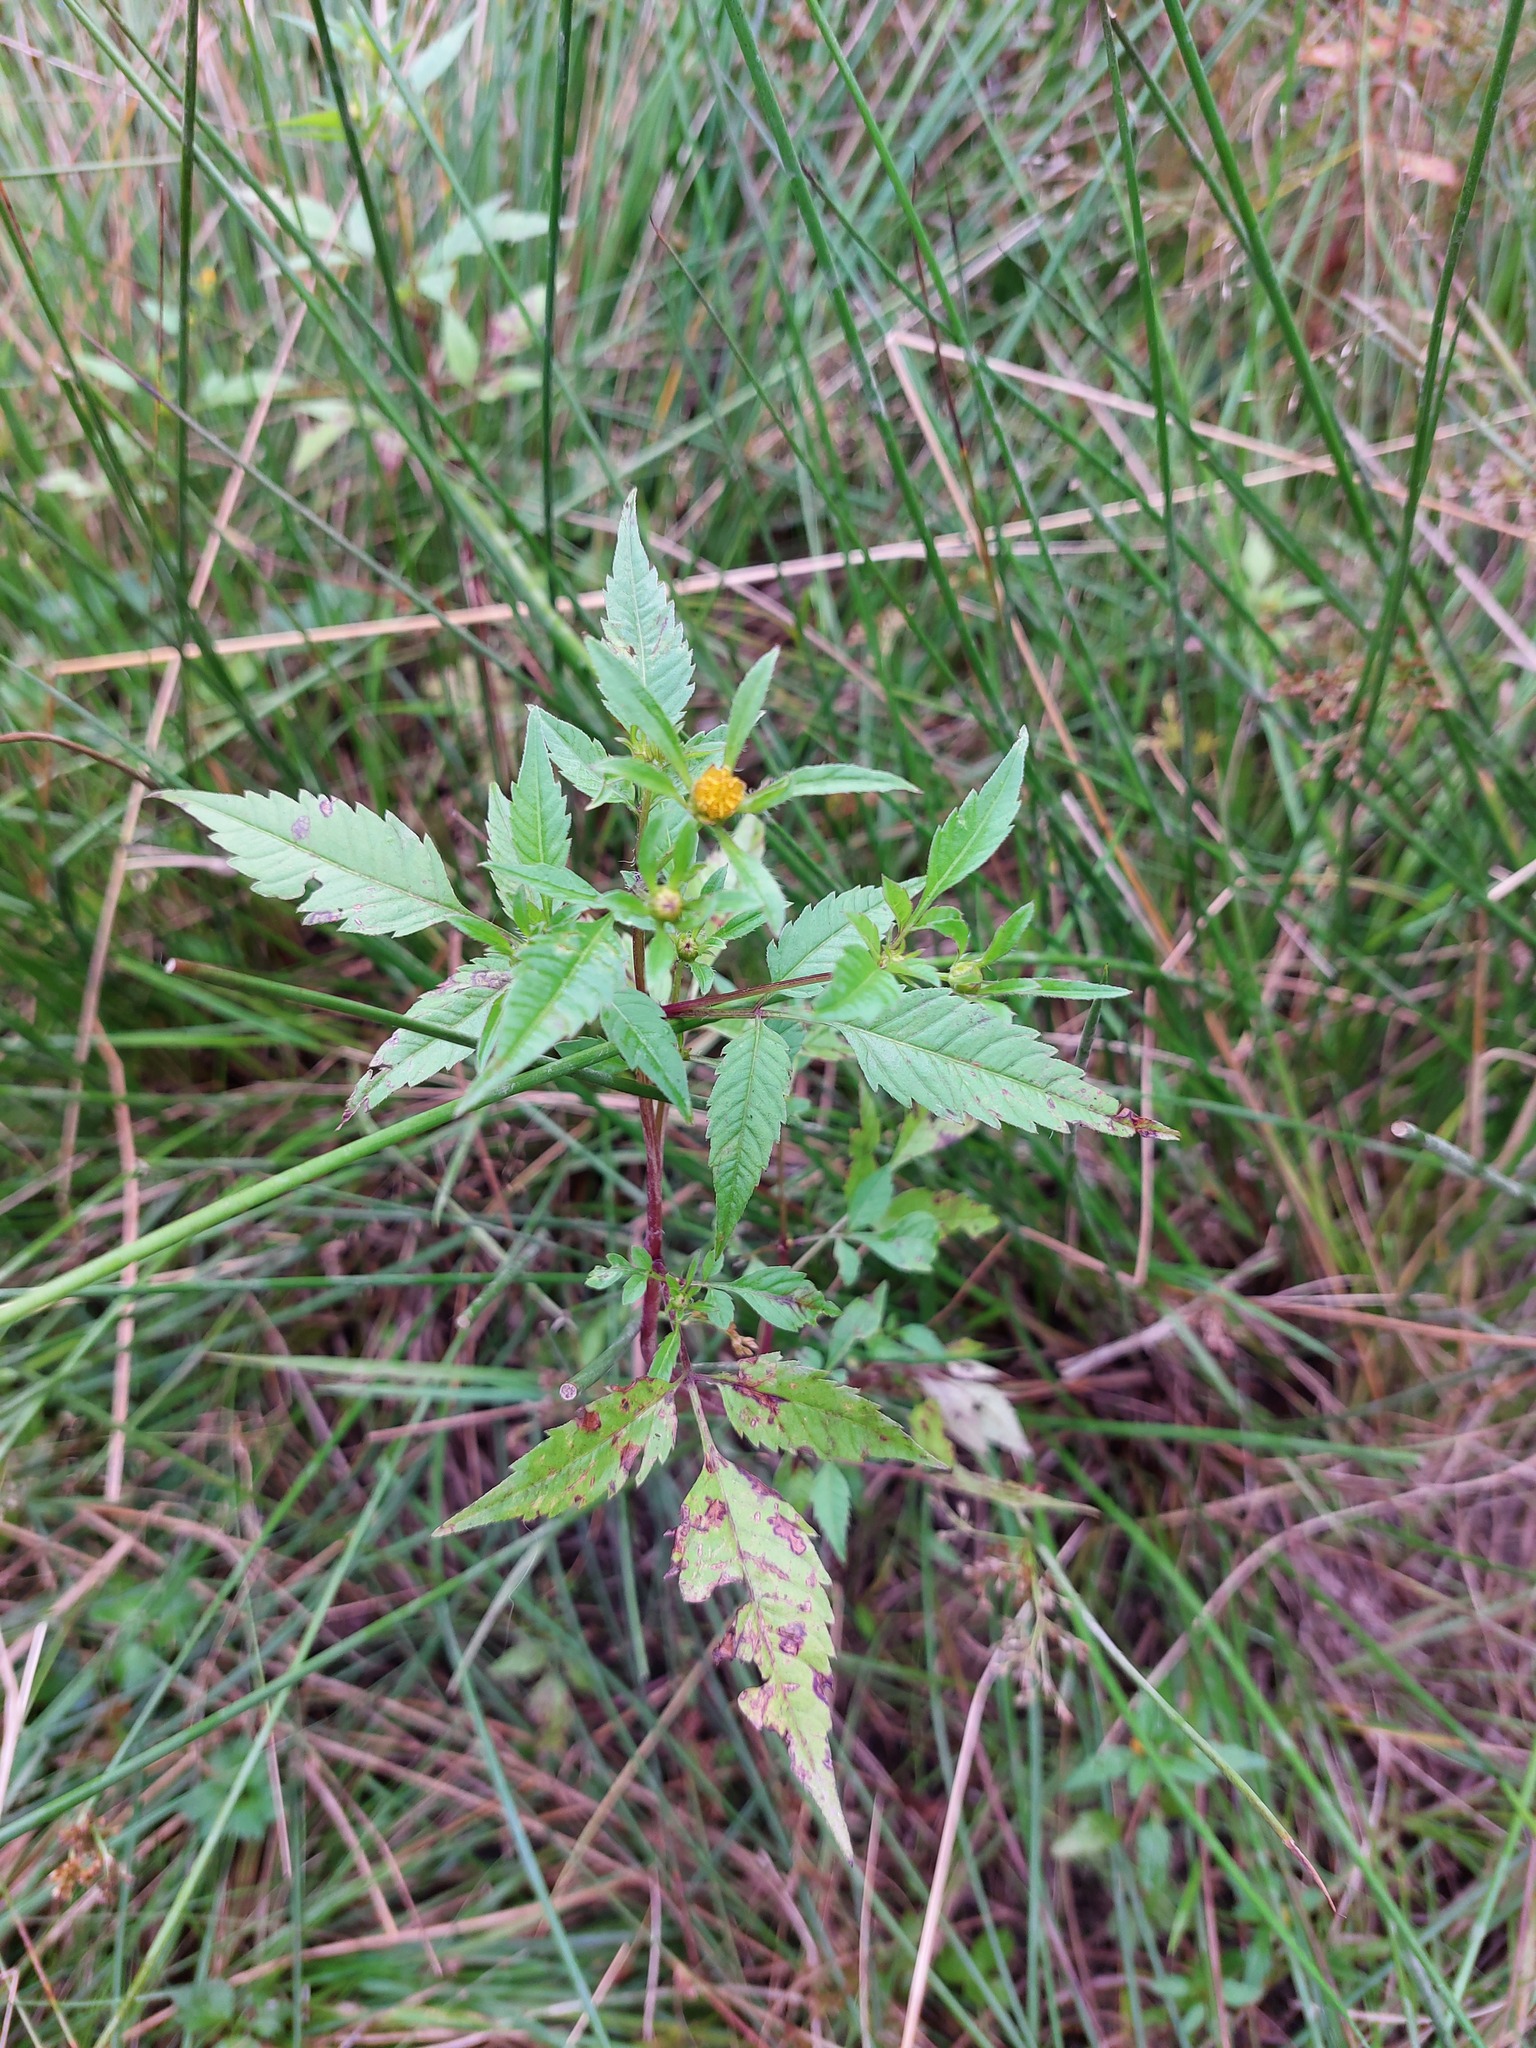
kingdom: Plantae
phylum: Tracheophyta
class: Magnoliopsida
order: Asterales
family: Asteraceae
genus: Bidens
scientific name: Bidens frondosa
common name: Beggarticks
